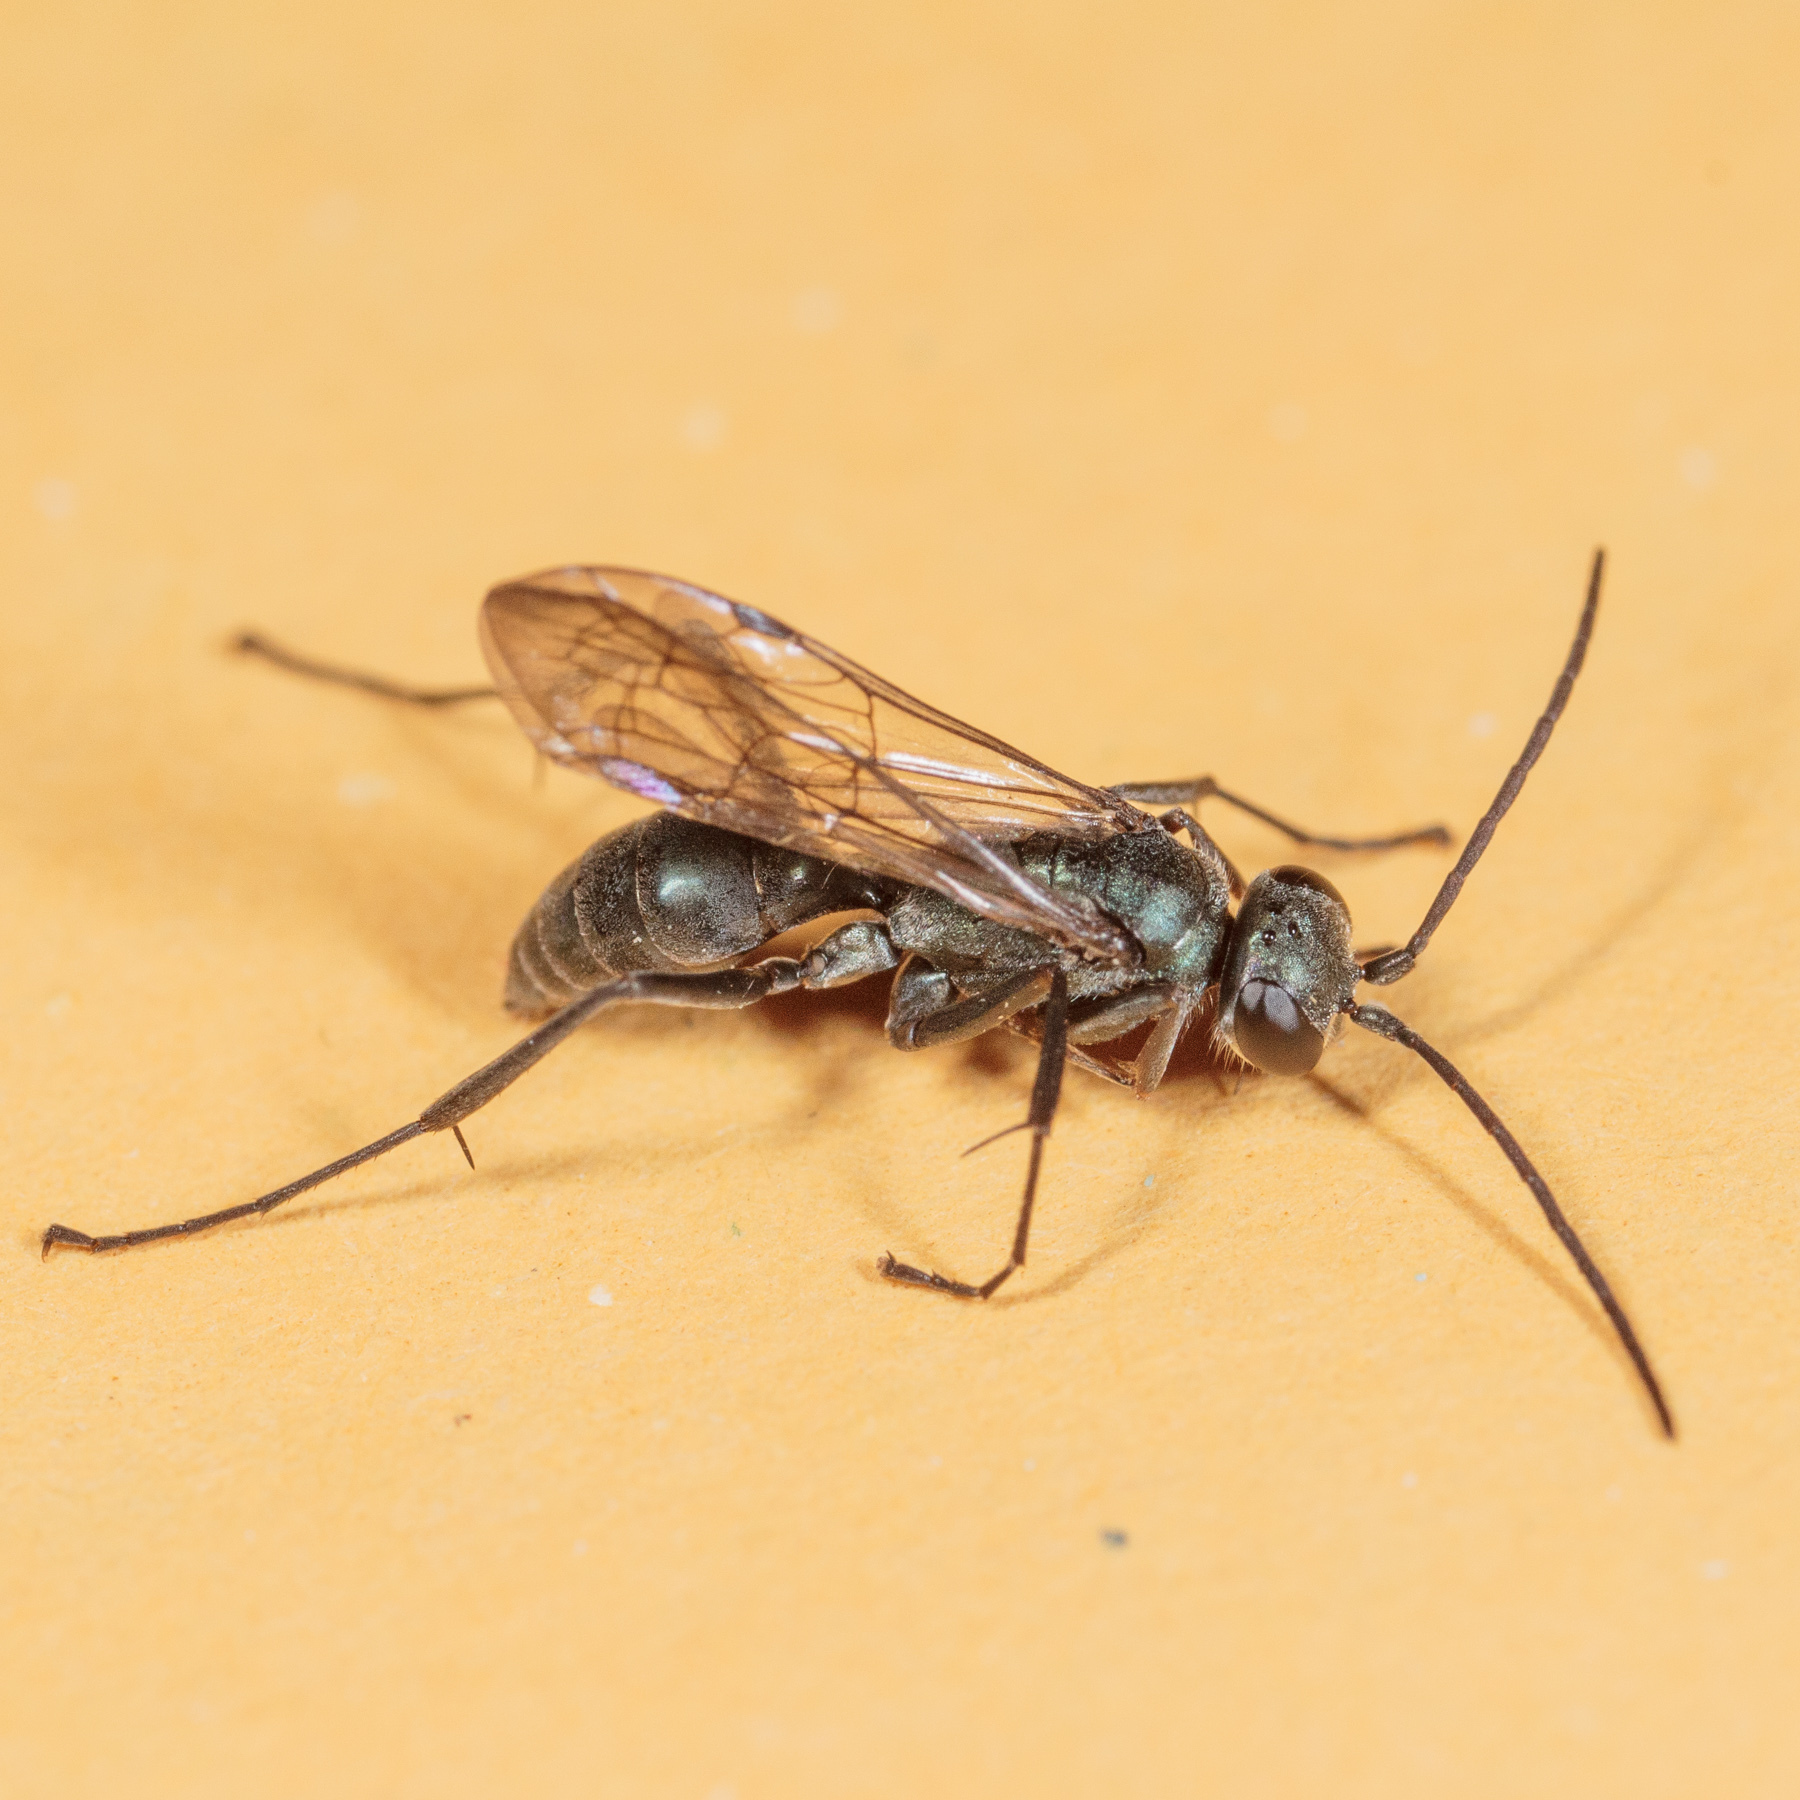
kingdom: Animalia
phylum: Arthropoda
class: Insecta
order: Hymenoptera
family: Pompilidae
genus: Auplopus
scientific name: Auplopus nigrellus
